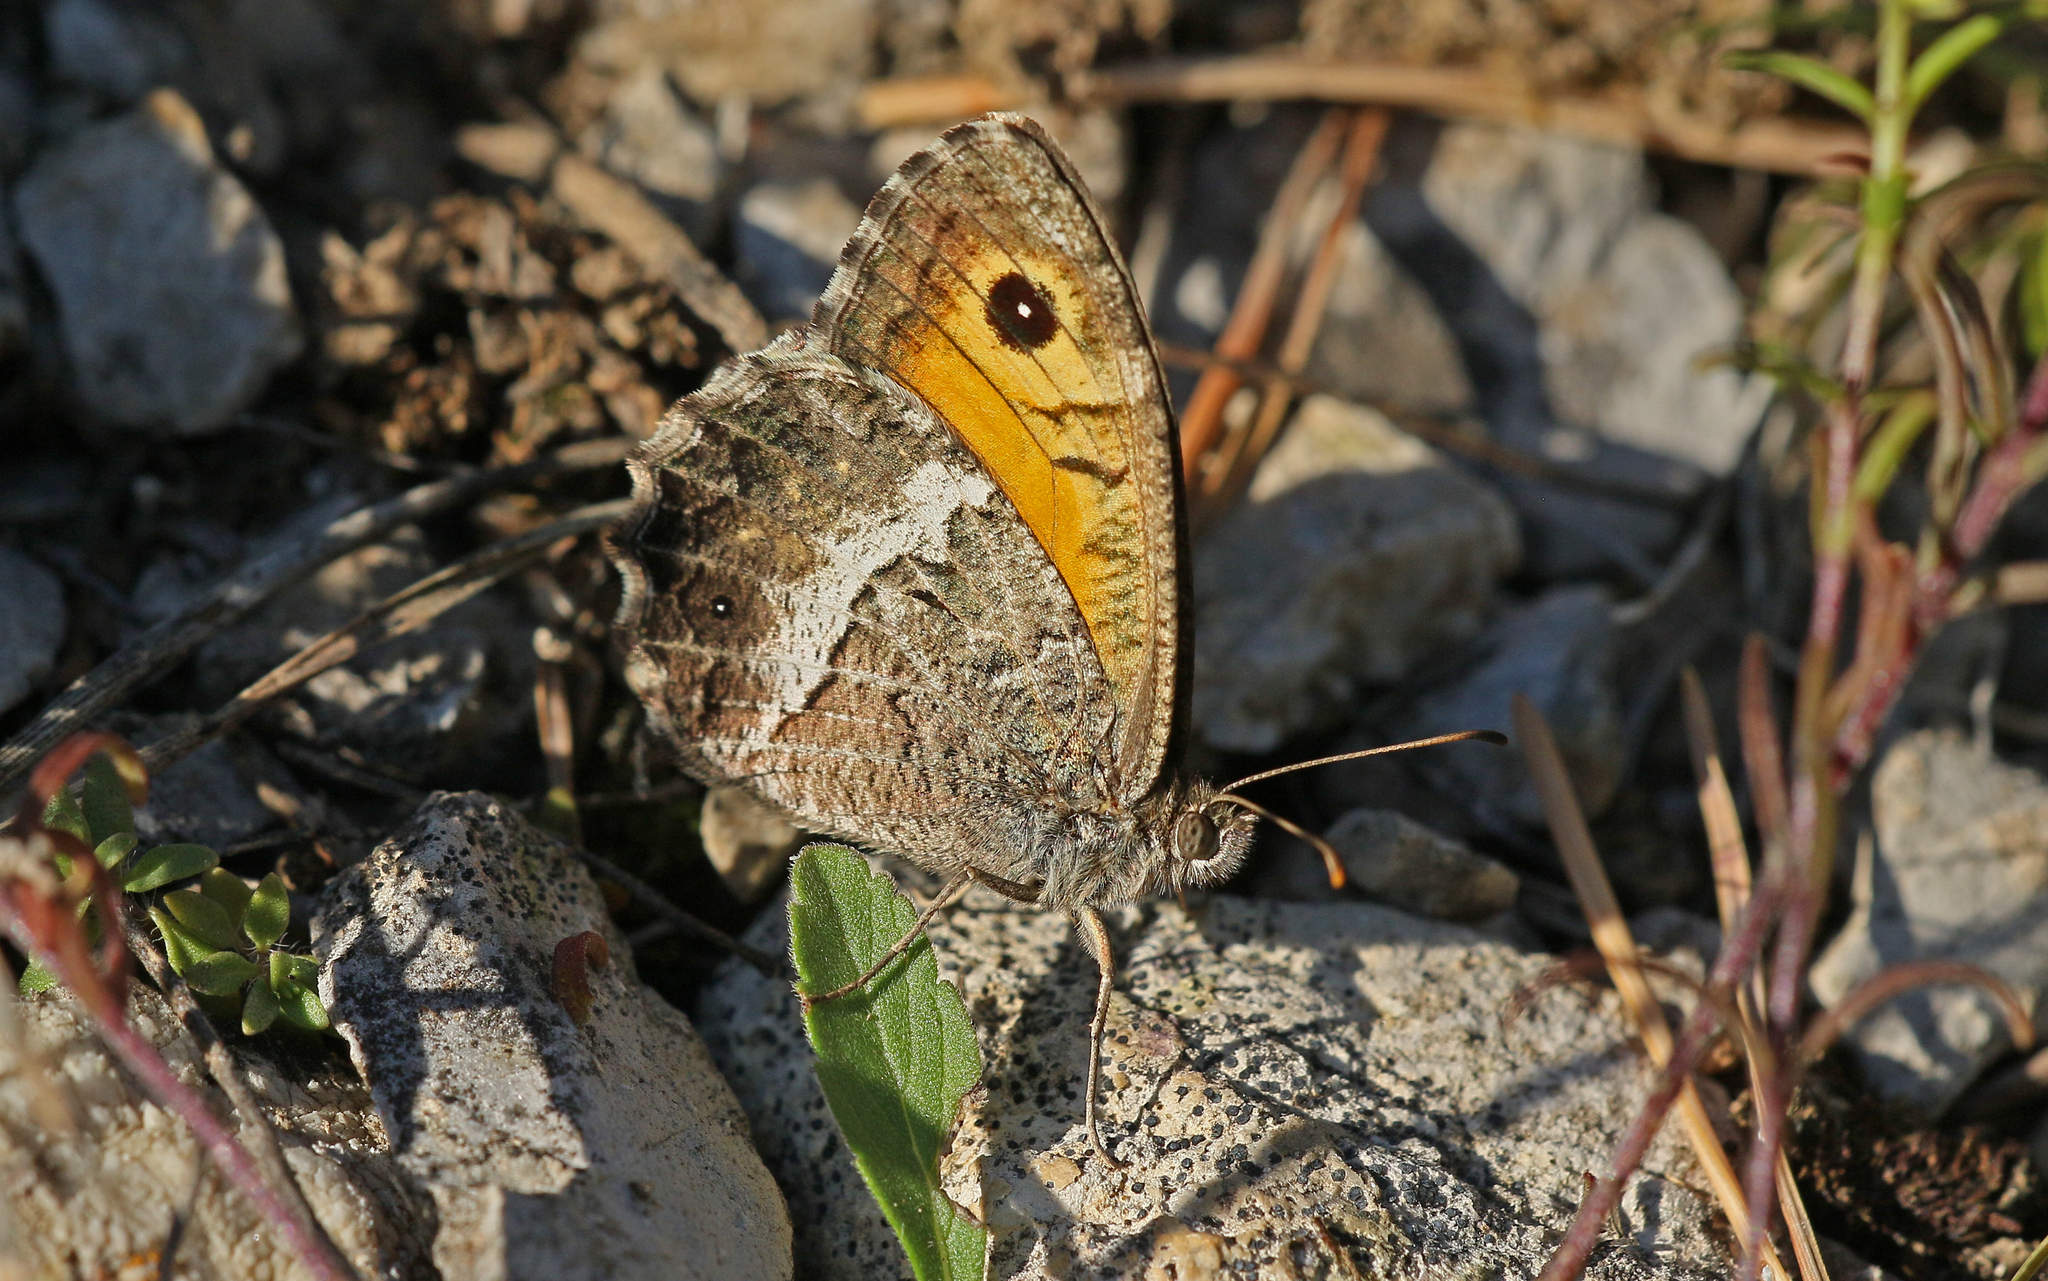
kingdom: Animalia
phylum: Arthropoda
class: Insecta
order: Lepidoptera
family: Nymphalidae
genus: Arethusana
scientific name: Arethusana arethusa
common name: False grayling
